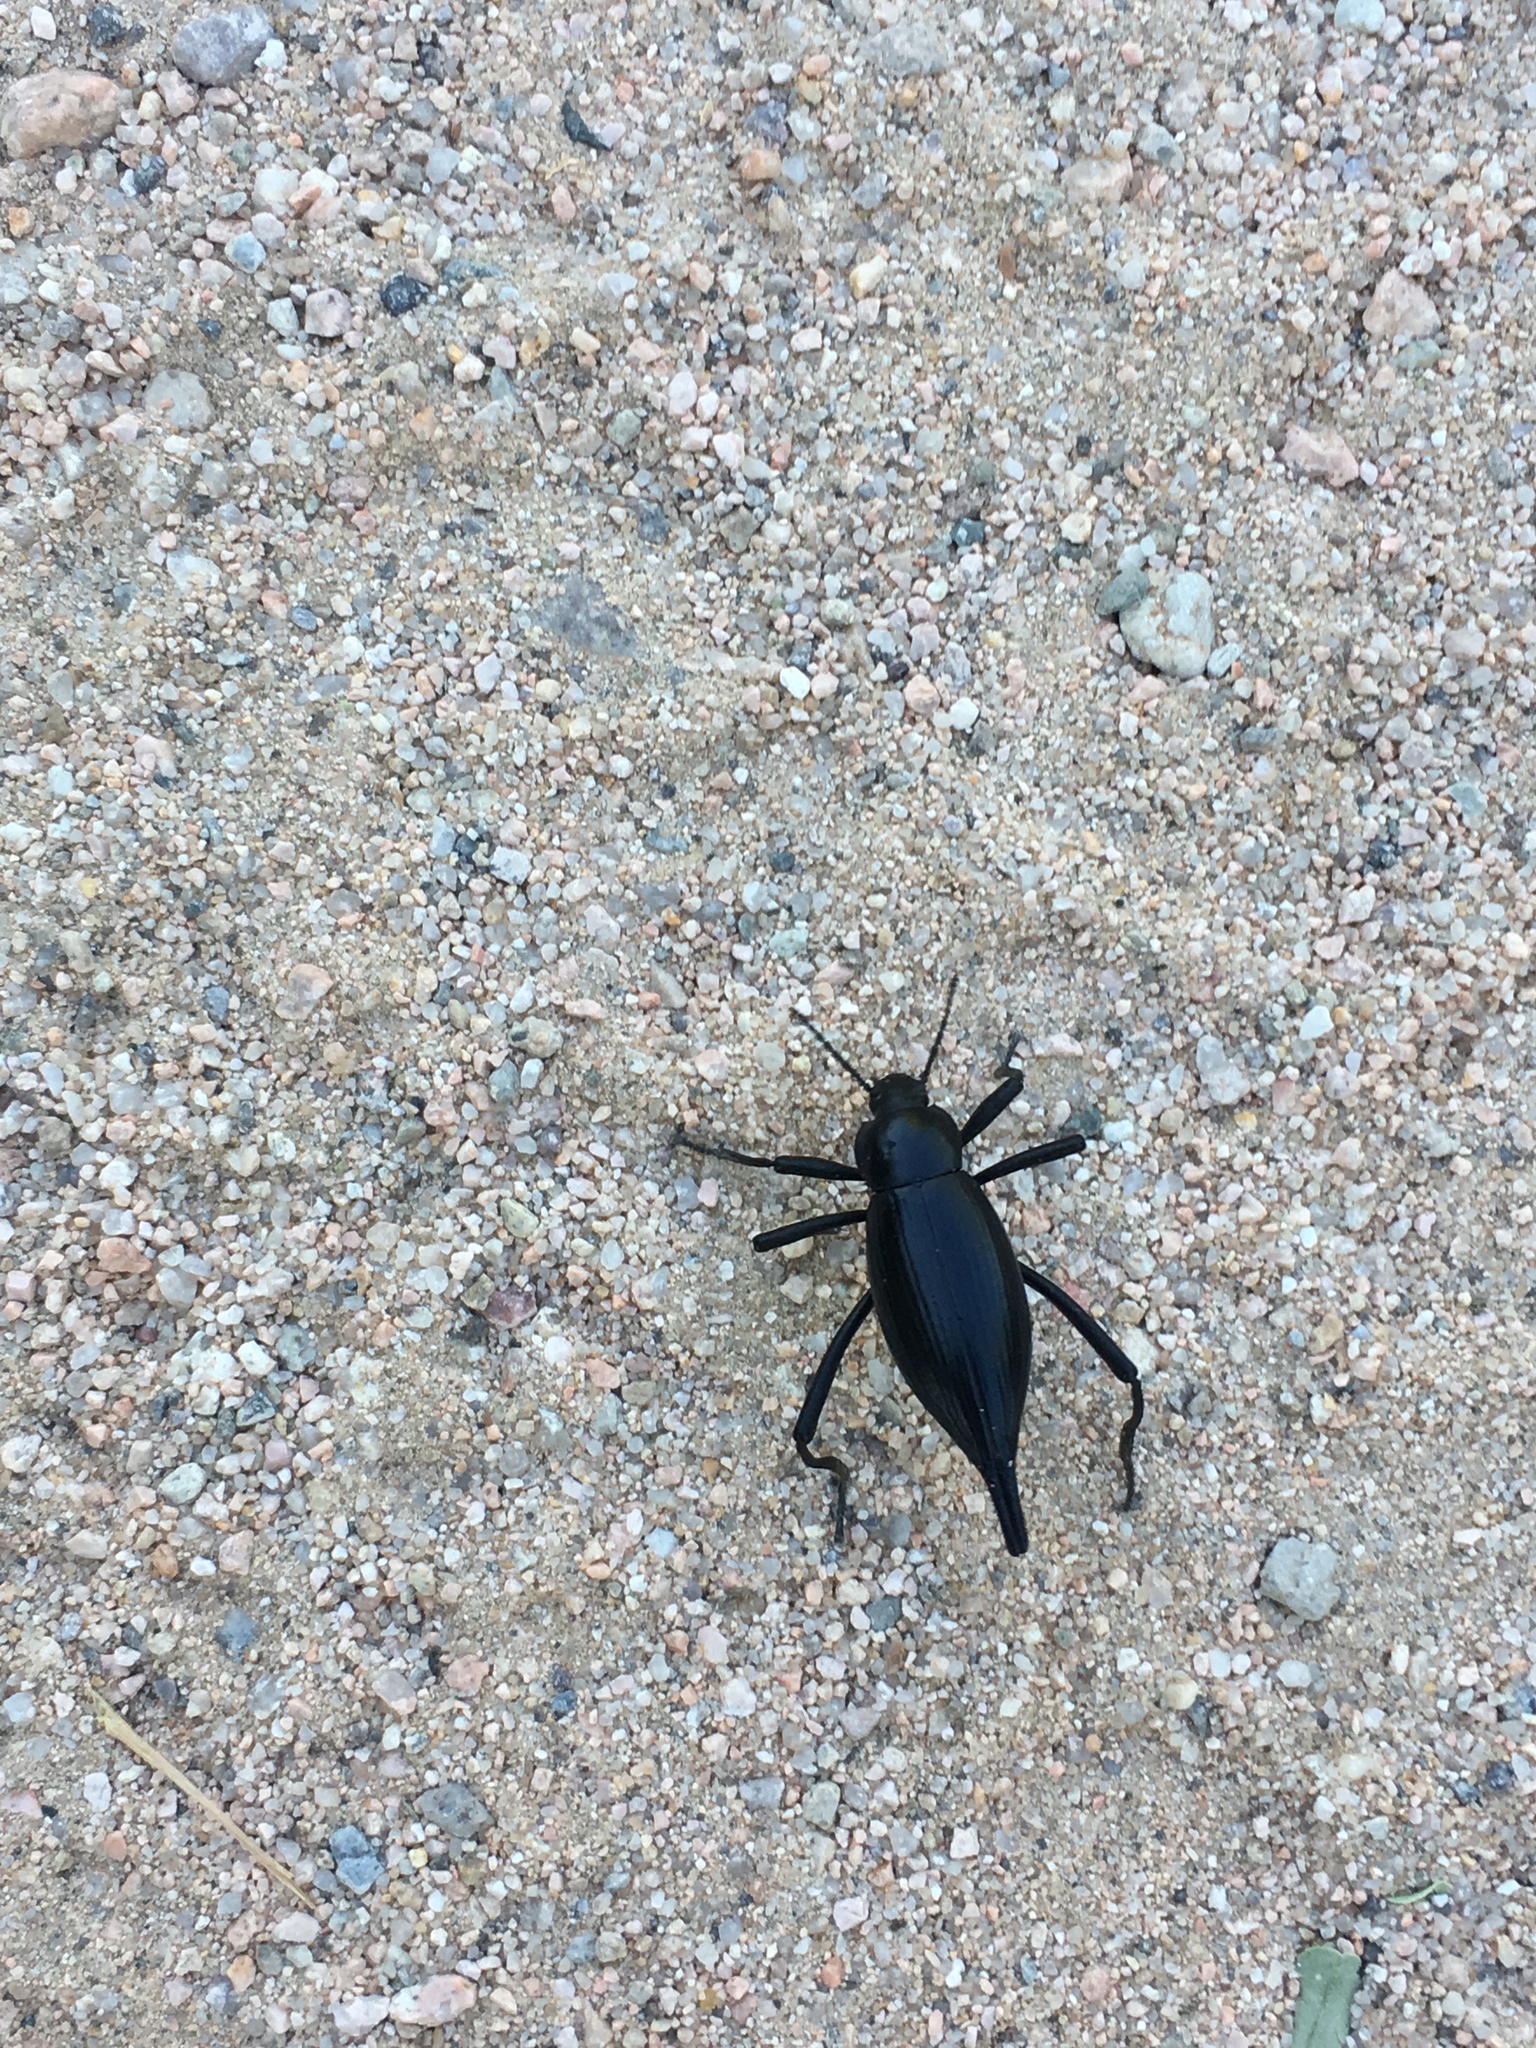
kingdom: Animalia
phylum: Arthropoda
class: Insecta
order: Coleoptera
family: Tenebrionidae
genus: Eleodes
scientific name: Eleodes eschscholtzii
